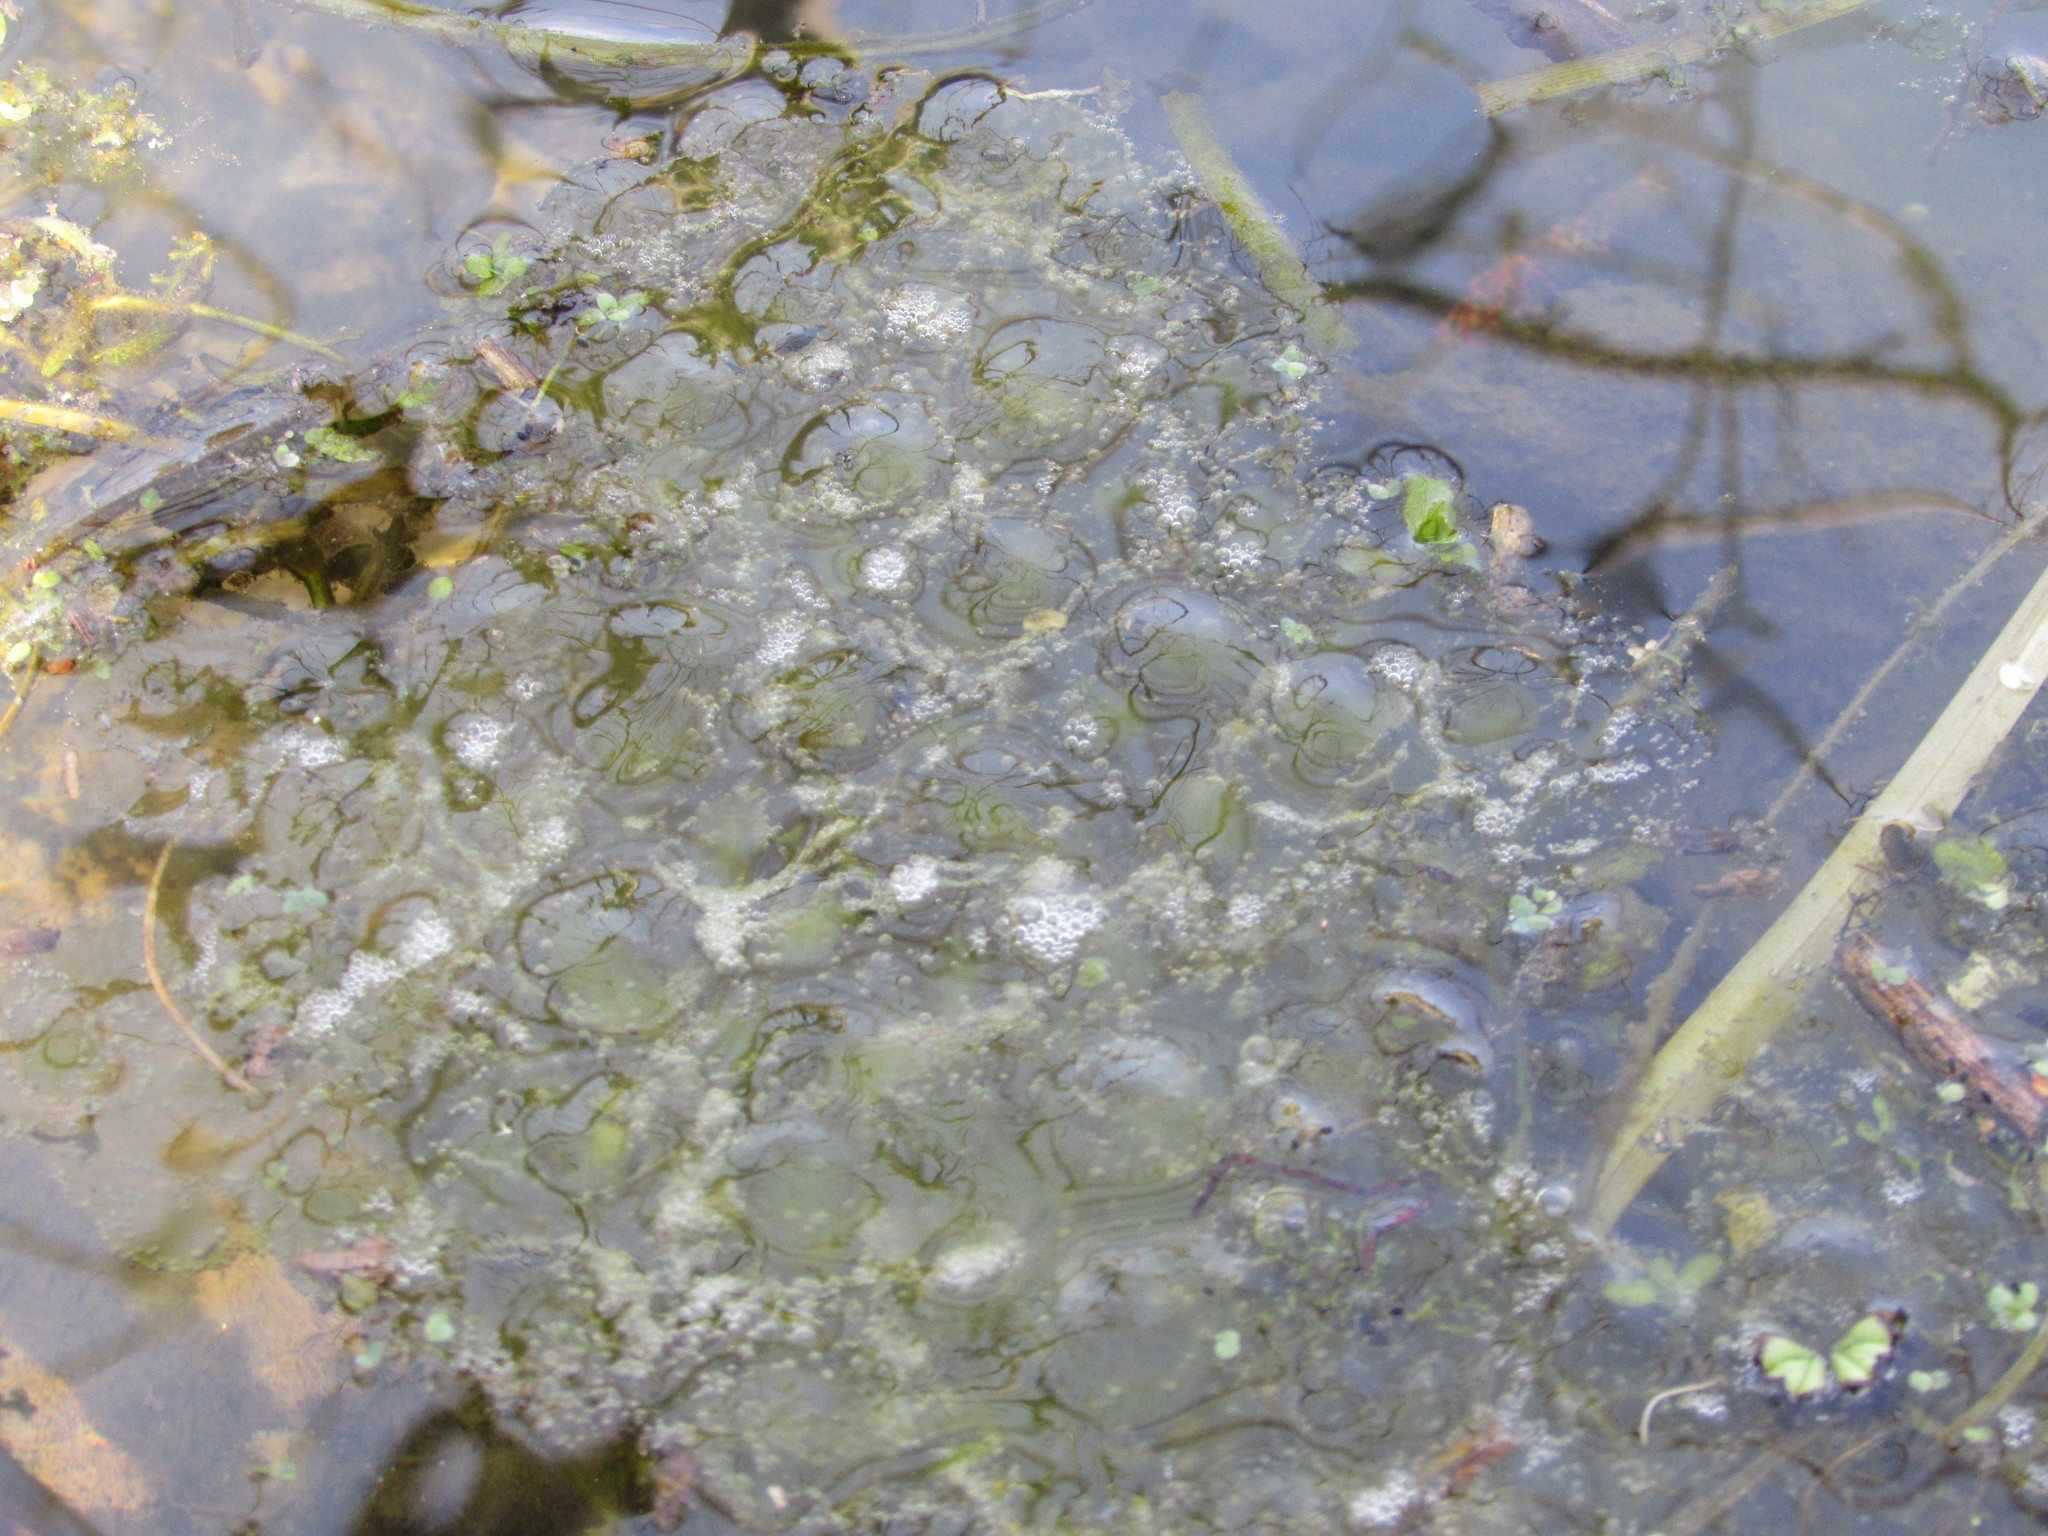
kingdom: Animalia
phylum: Chordata
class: Amphibia
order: Anura
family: Ranidae
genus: Rana
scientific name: Rana aurora
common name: Red-legged frog
